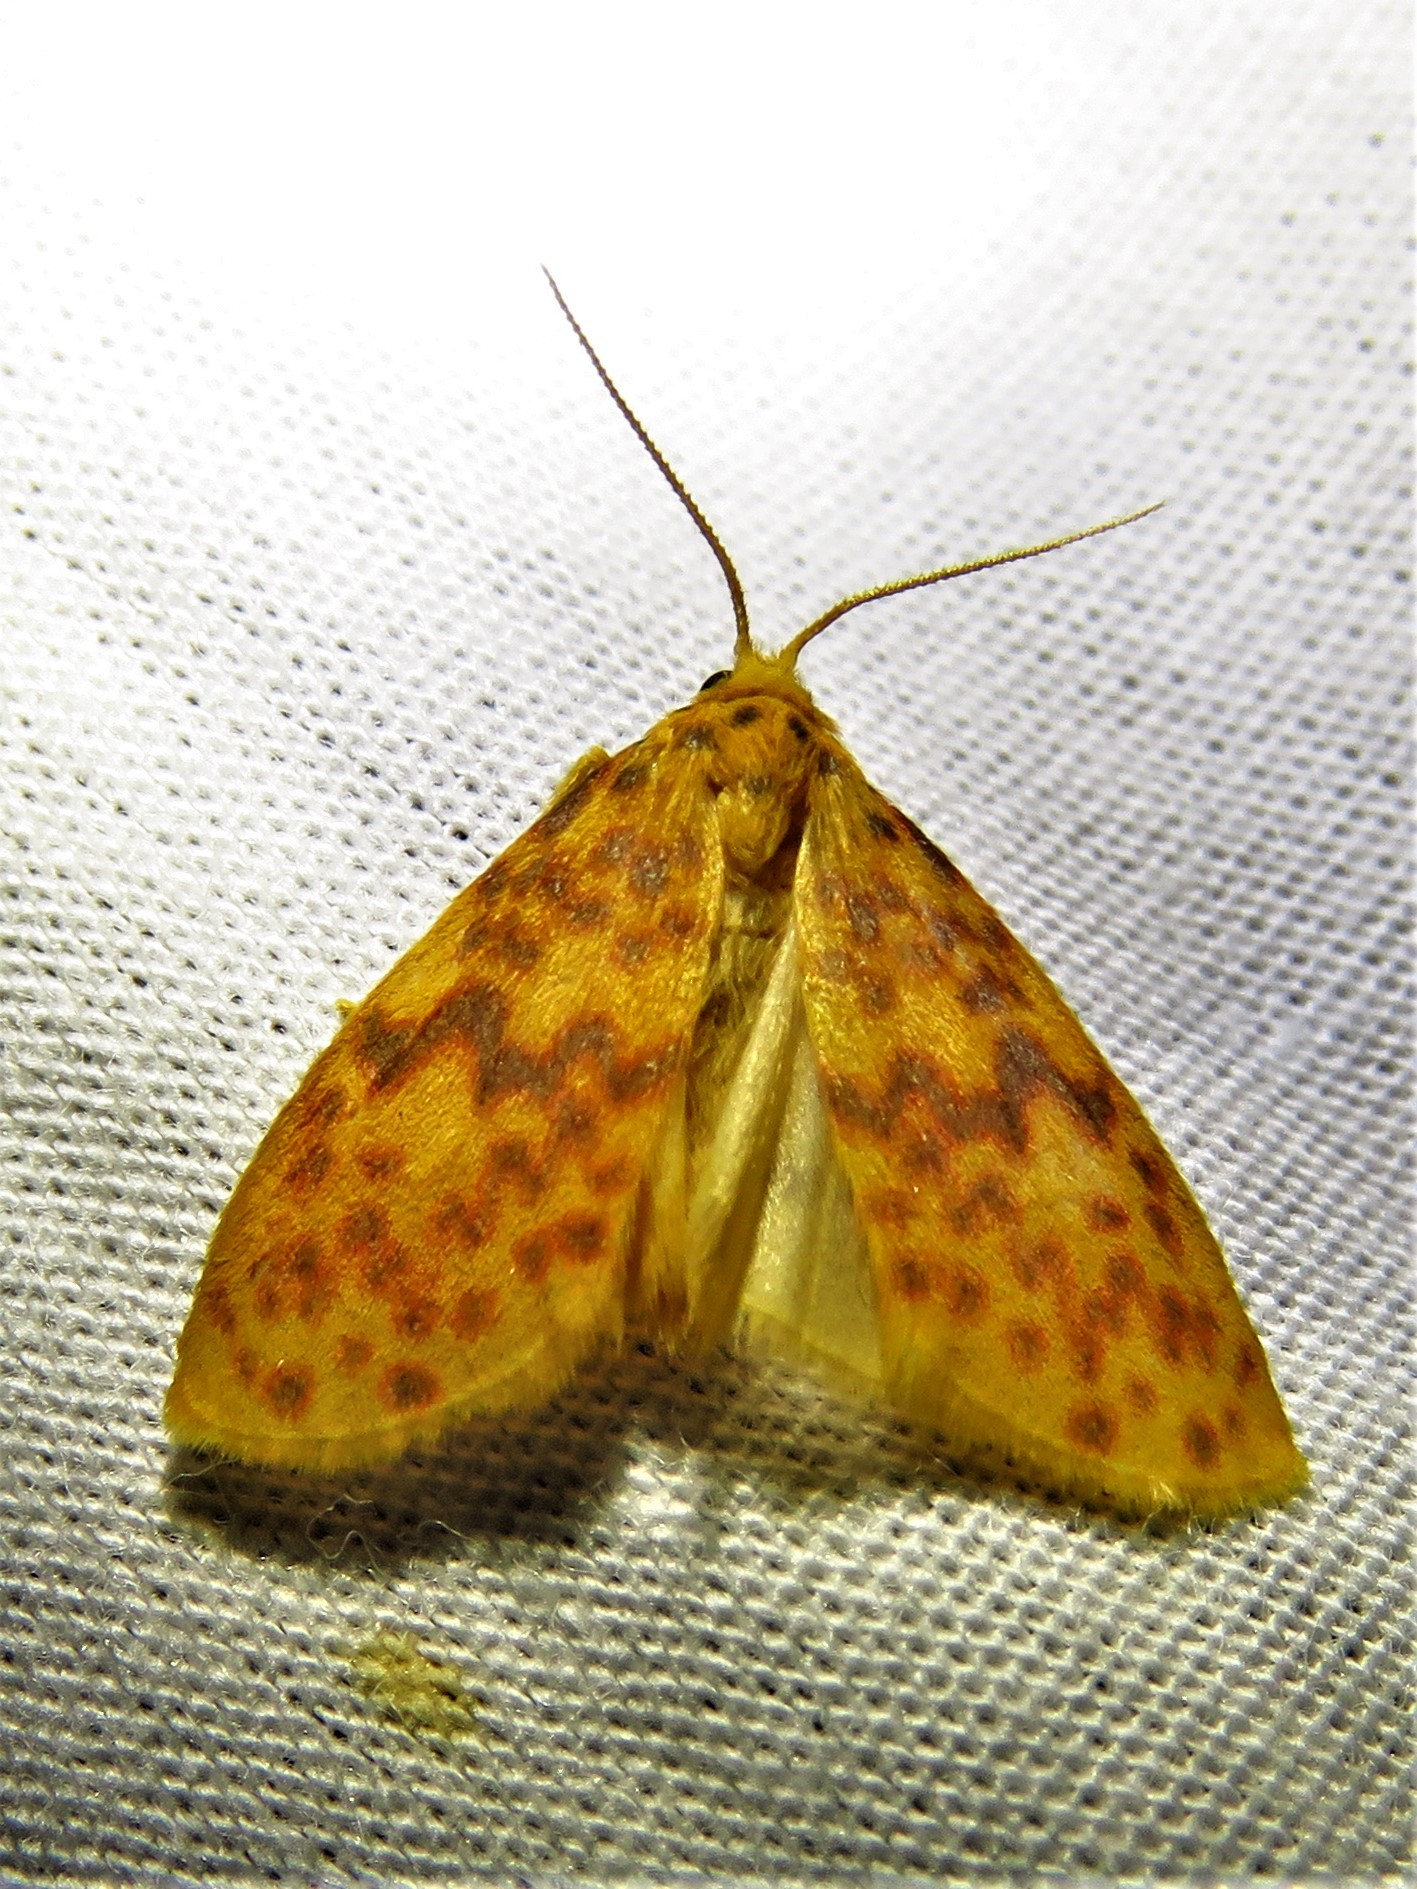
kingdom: Animalia
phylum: Arthropoda
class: Insecta
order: Lepidoptera
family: Erebidae
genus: Afrasura
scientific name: Afrasura rivulosa
